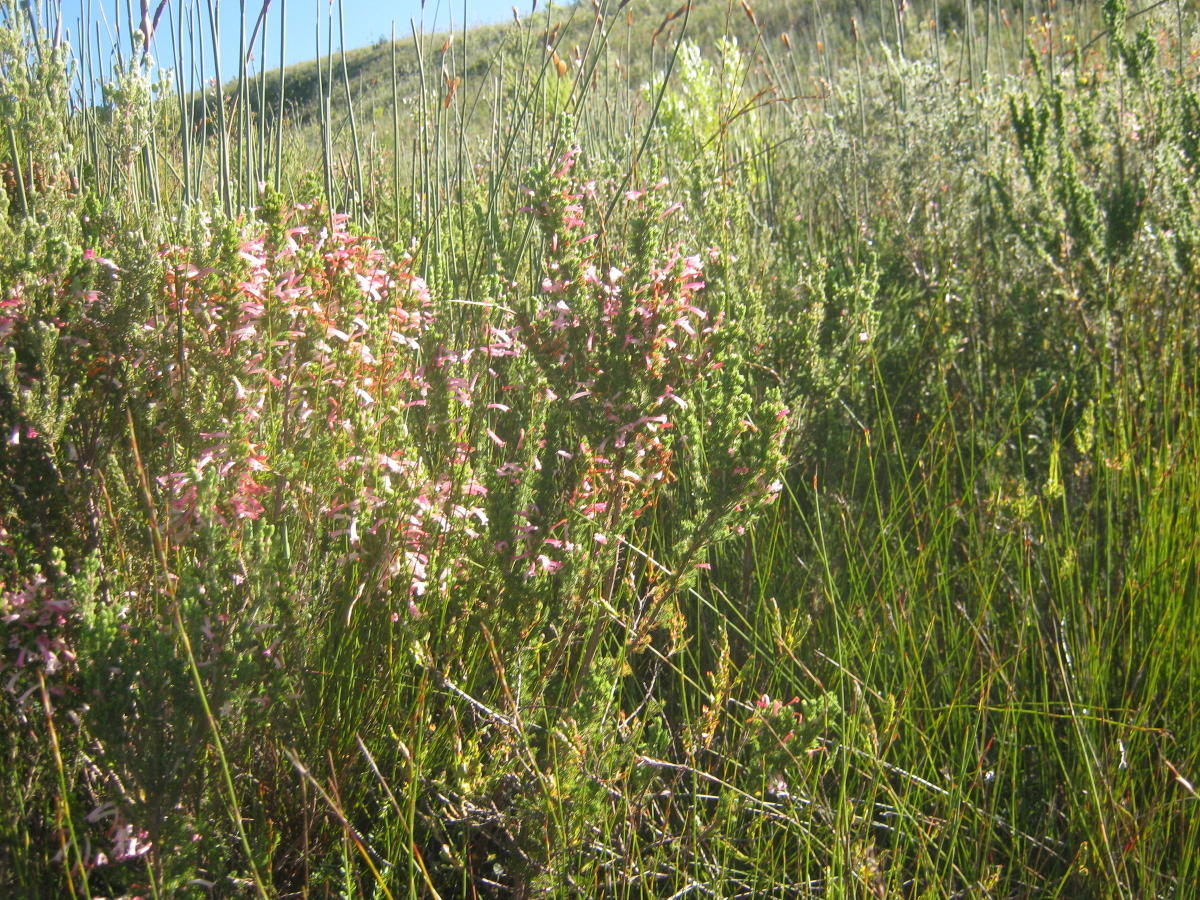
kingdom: Plantae
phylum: Tracheophyta
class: Magnoliopsida
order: Ericales
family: Ericaceae
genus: Erica
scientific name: Erica curviflora
